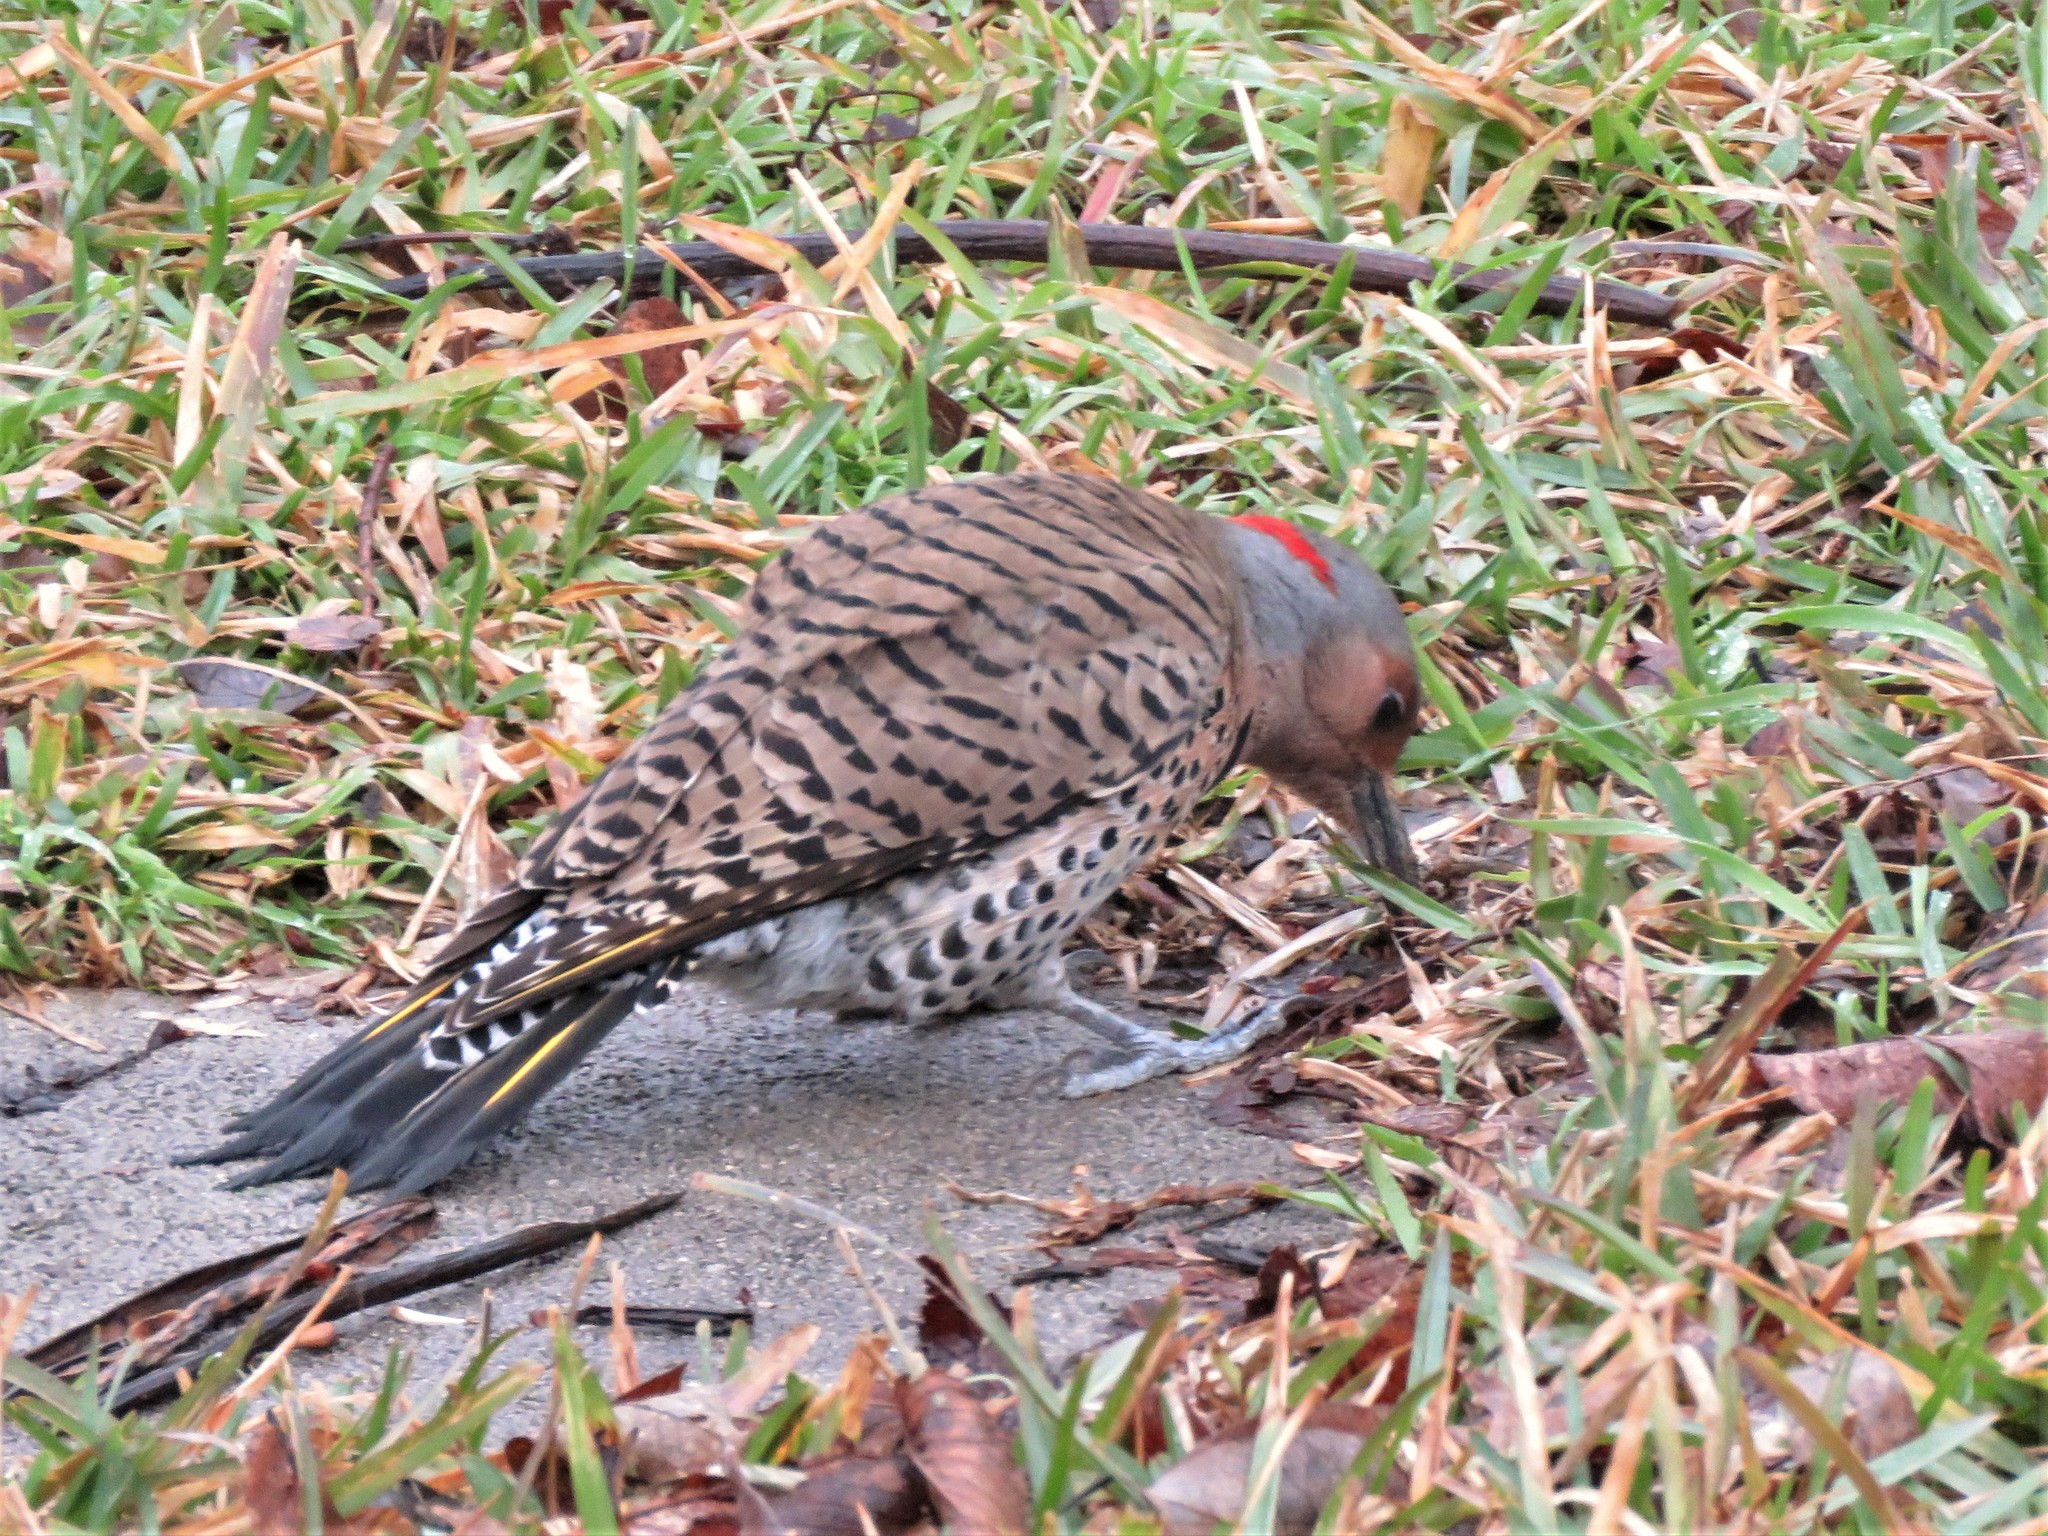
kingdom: Animalia
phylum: Chordata
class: Aves
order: Piciformes
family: Picidae
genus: Colaptes
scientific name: Colaptes auratus
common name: Northern flicker
